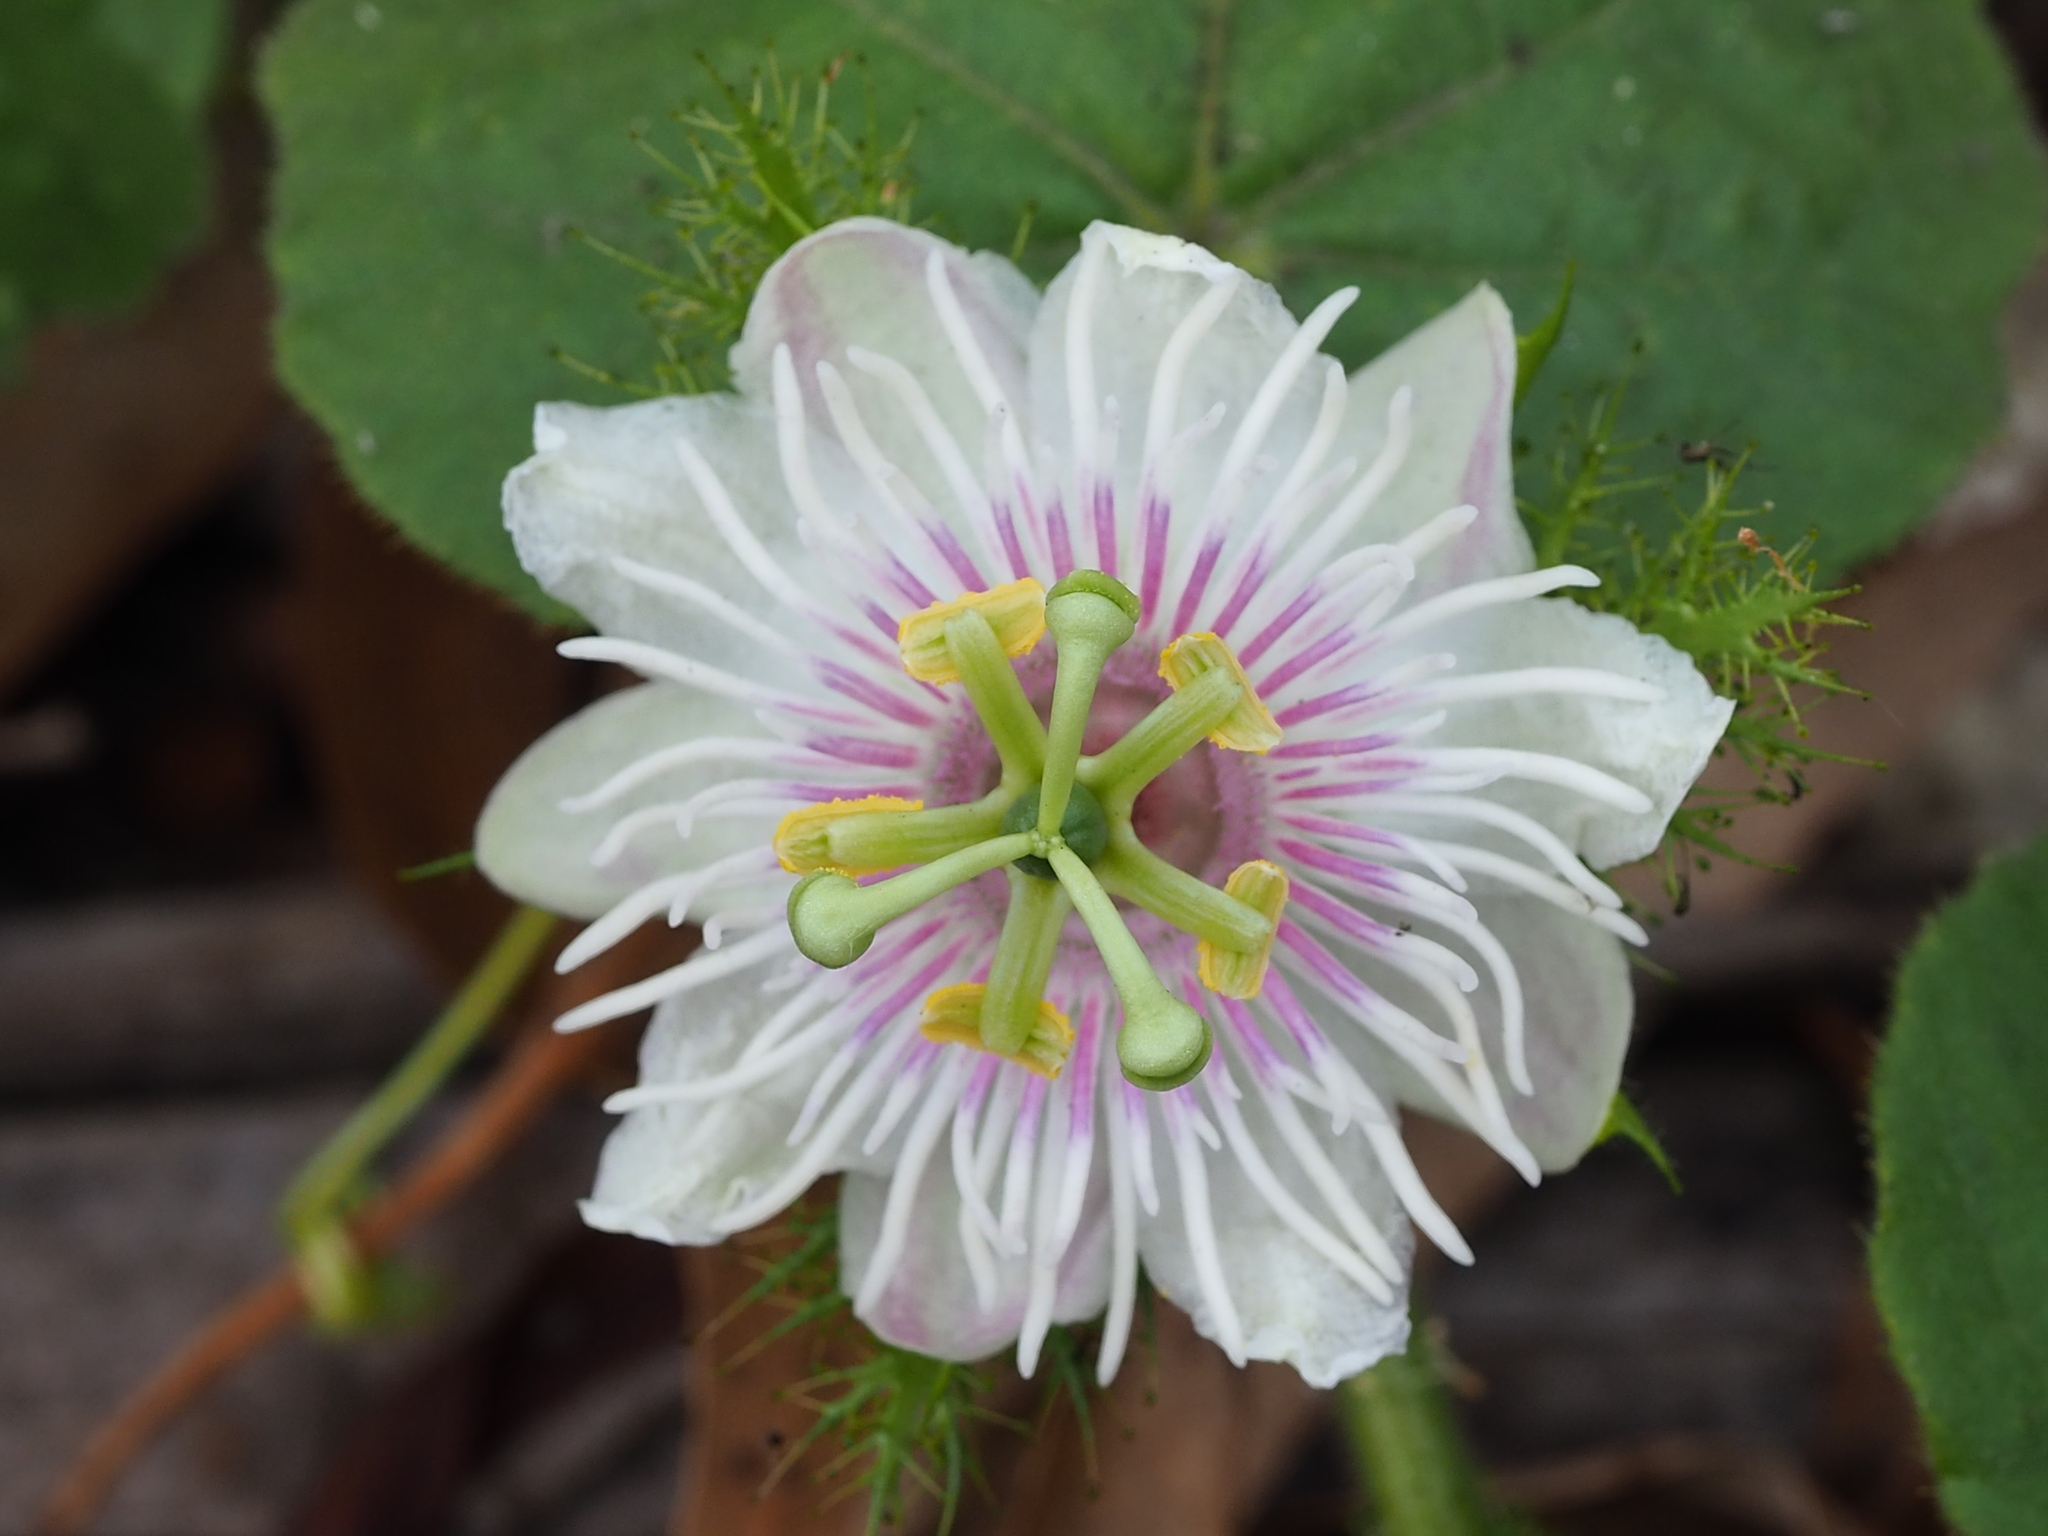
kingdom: Plantae
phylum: Tracheophyta
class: Magnoliopsida
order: Malpighiales
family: Passifloraceae
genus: Passiflora
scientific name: Passiflora vesicaria
